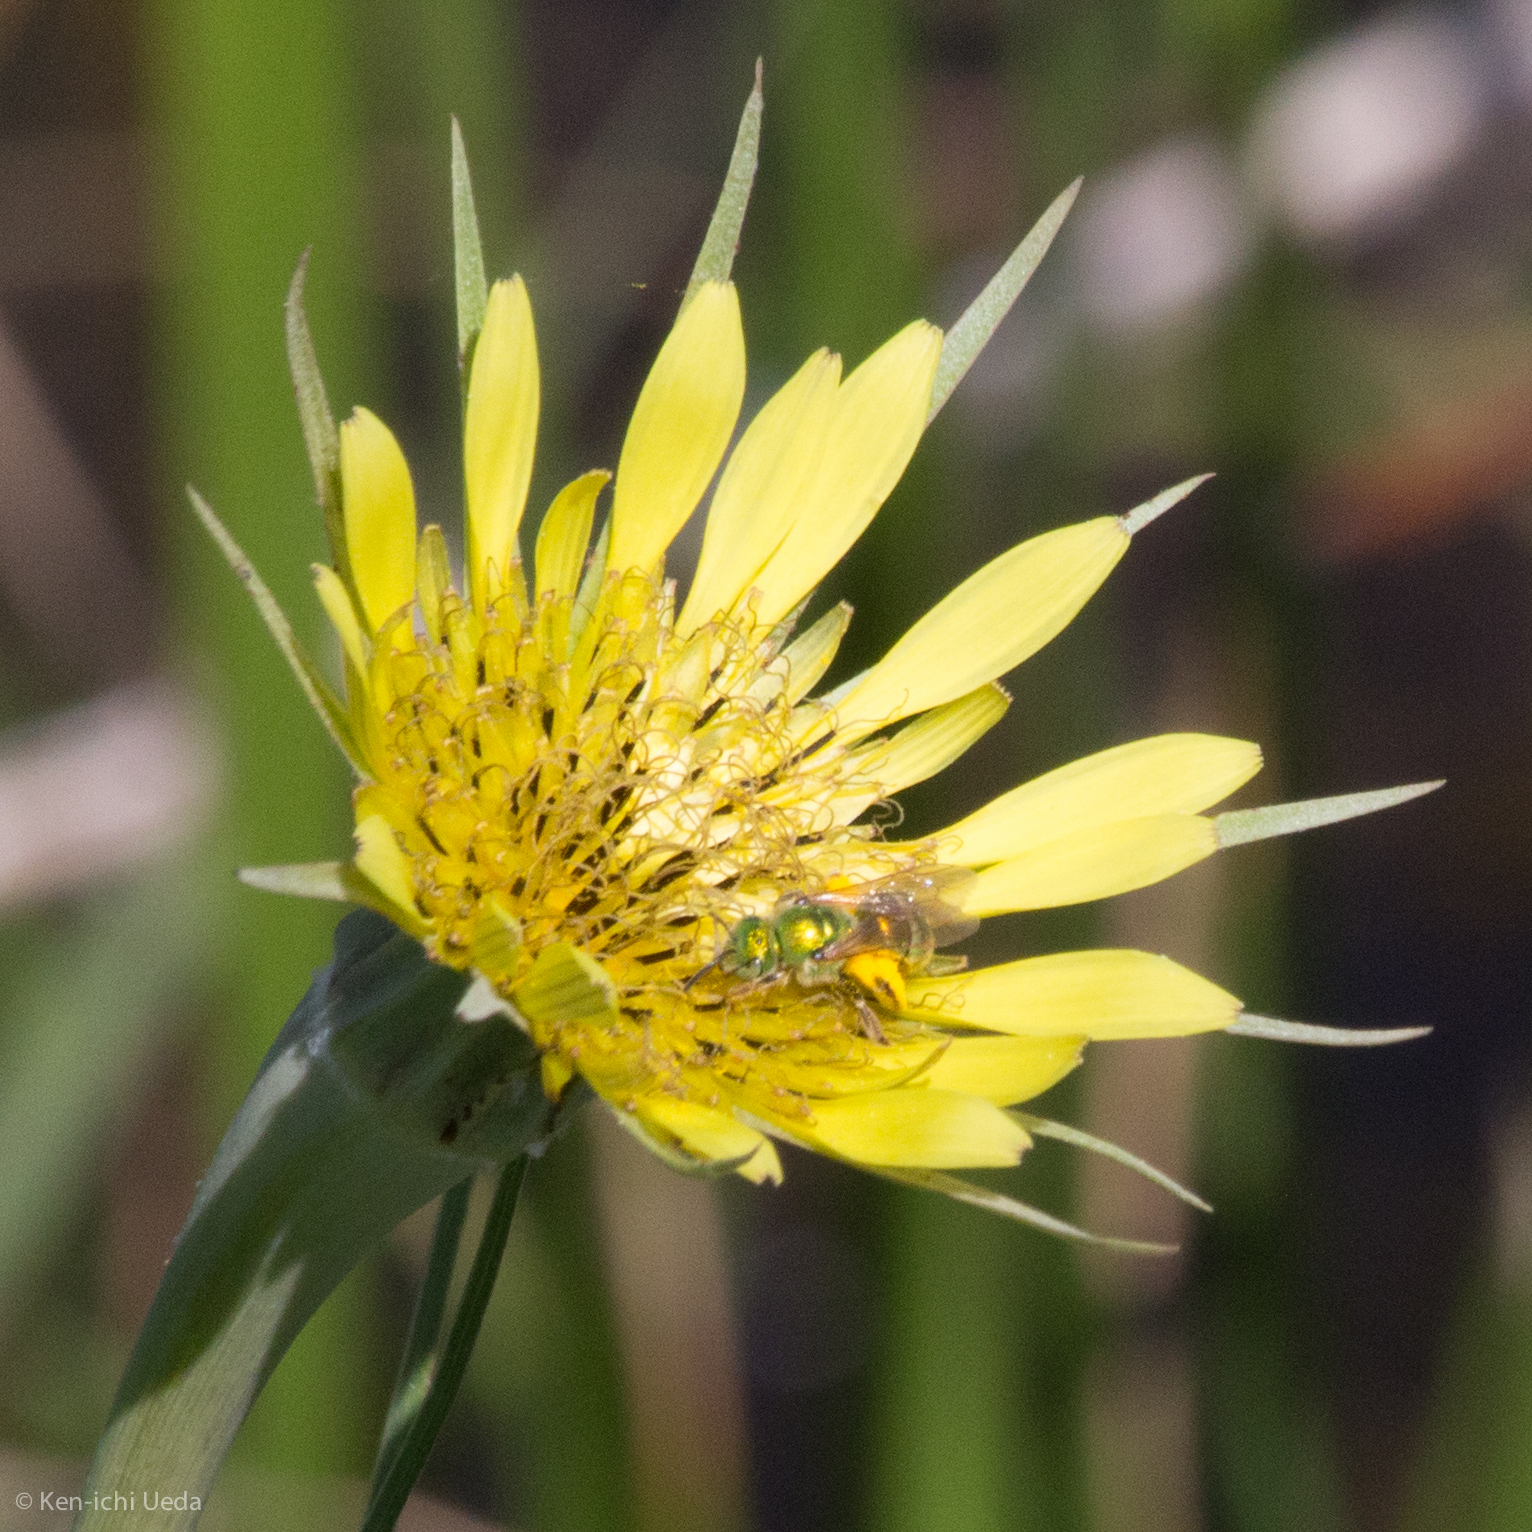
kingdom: Plantae
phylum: Tracheophyta
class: Magnoliopsida
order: Asterales
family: Asteraceae
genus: Tragopogon
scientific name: Tragopogon dubius
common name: Yellow salsify
